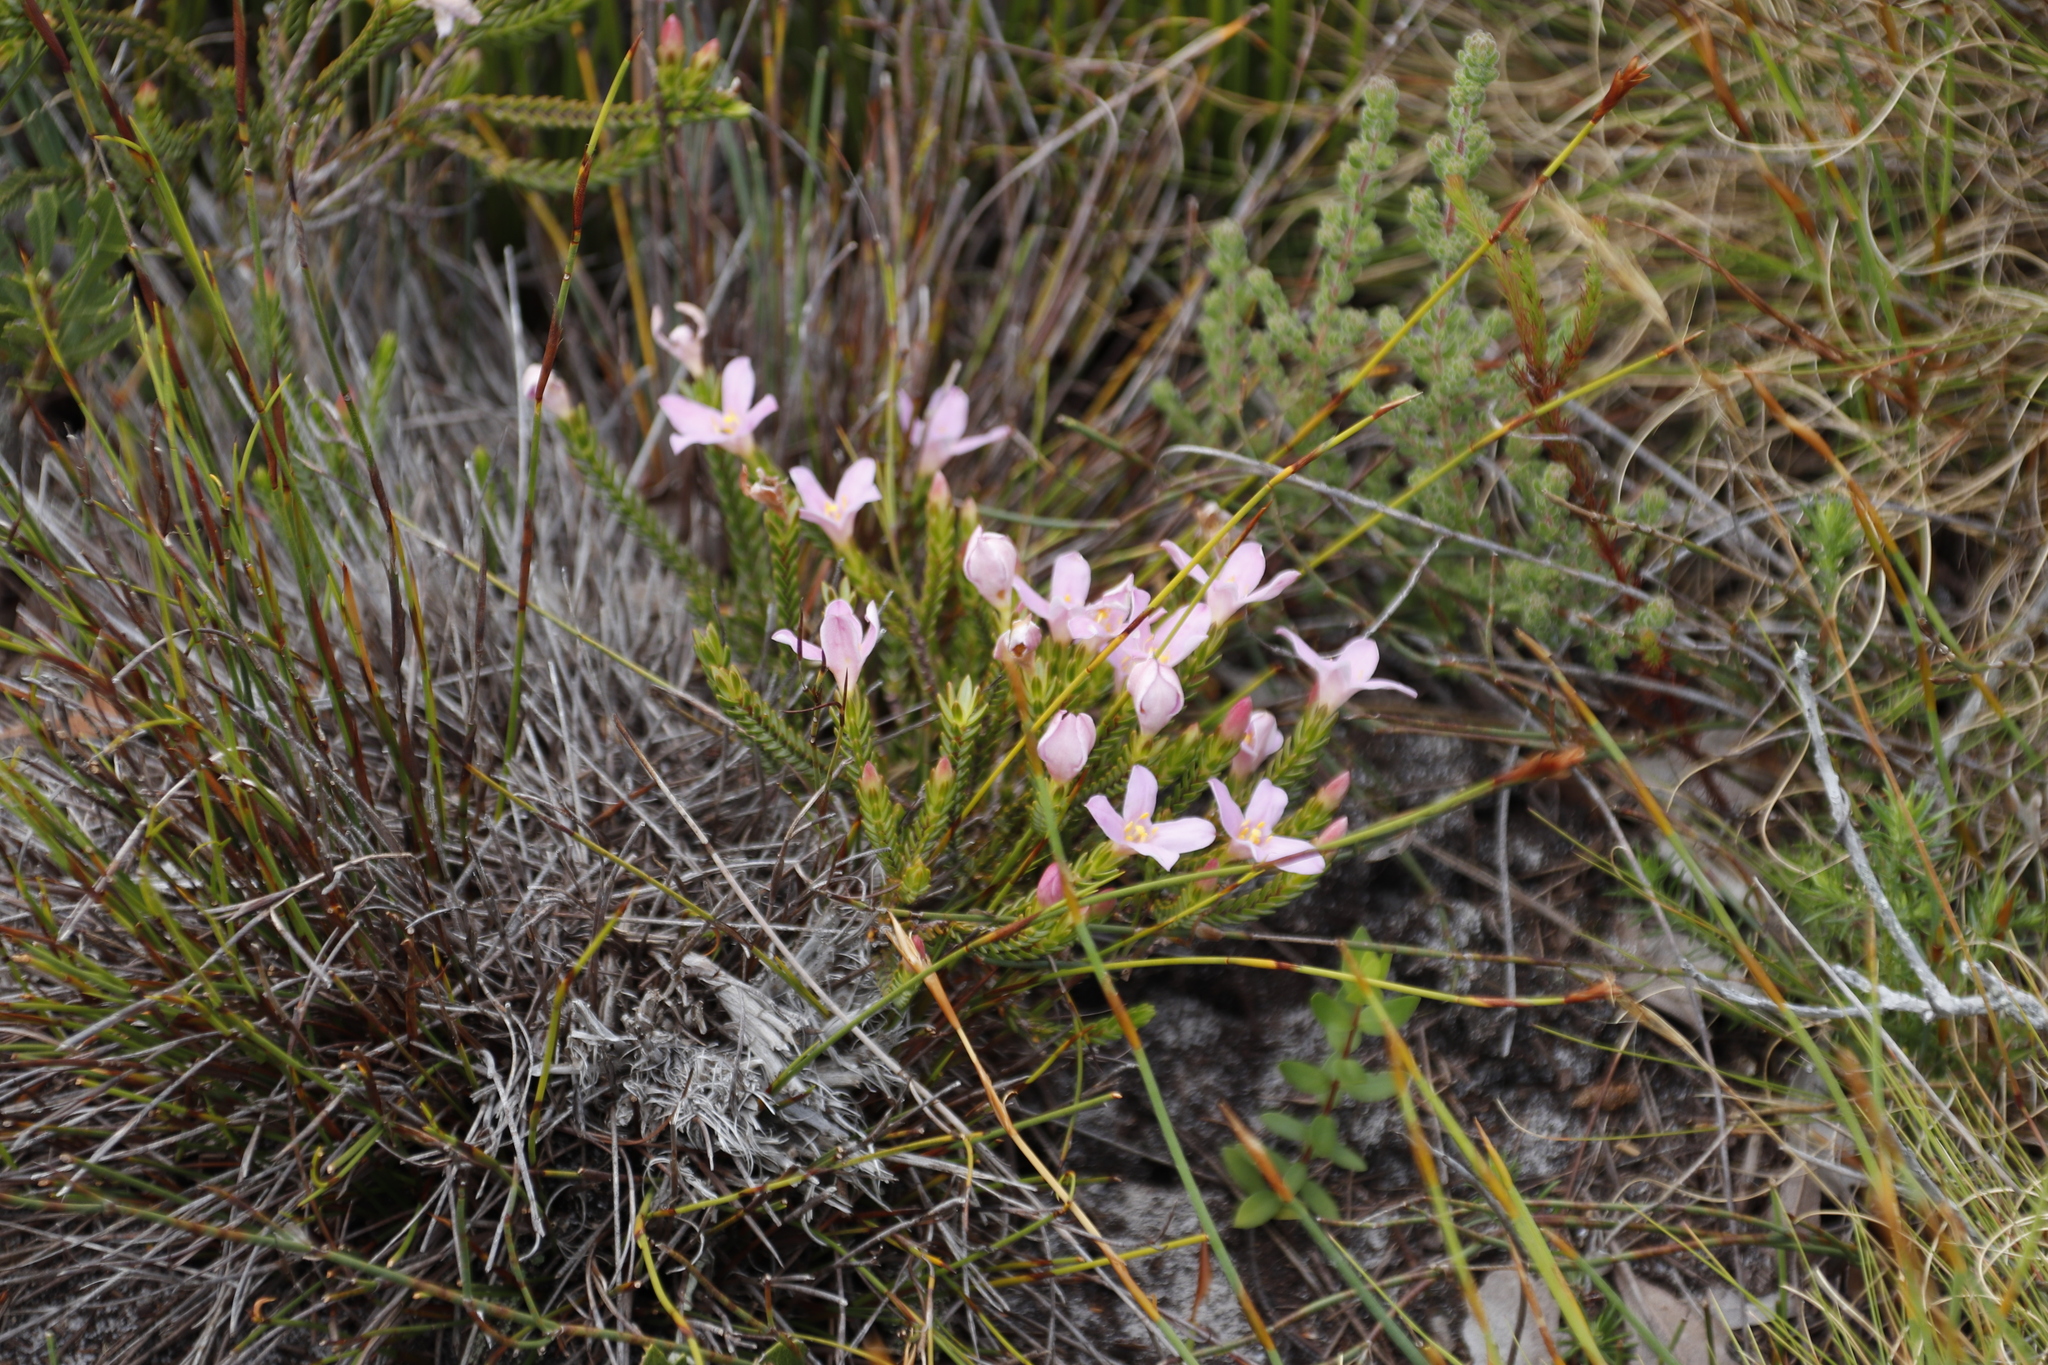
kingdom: Plantae
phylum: Tracheophyta
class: Magnoliopsida
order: Malvales
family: Thymelaeaceae
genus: Lachnaea
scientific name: Lachnaea grandiflora
